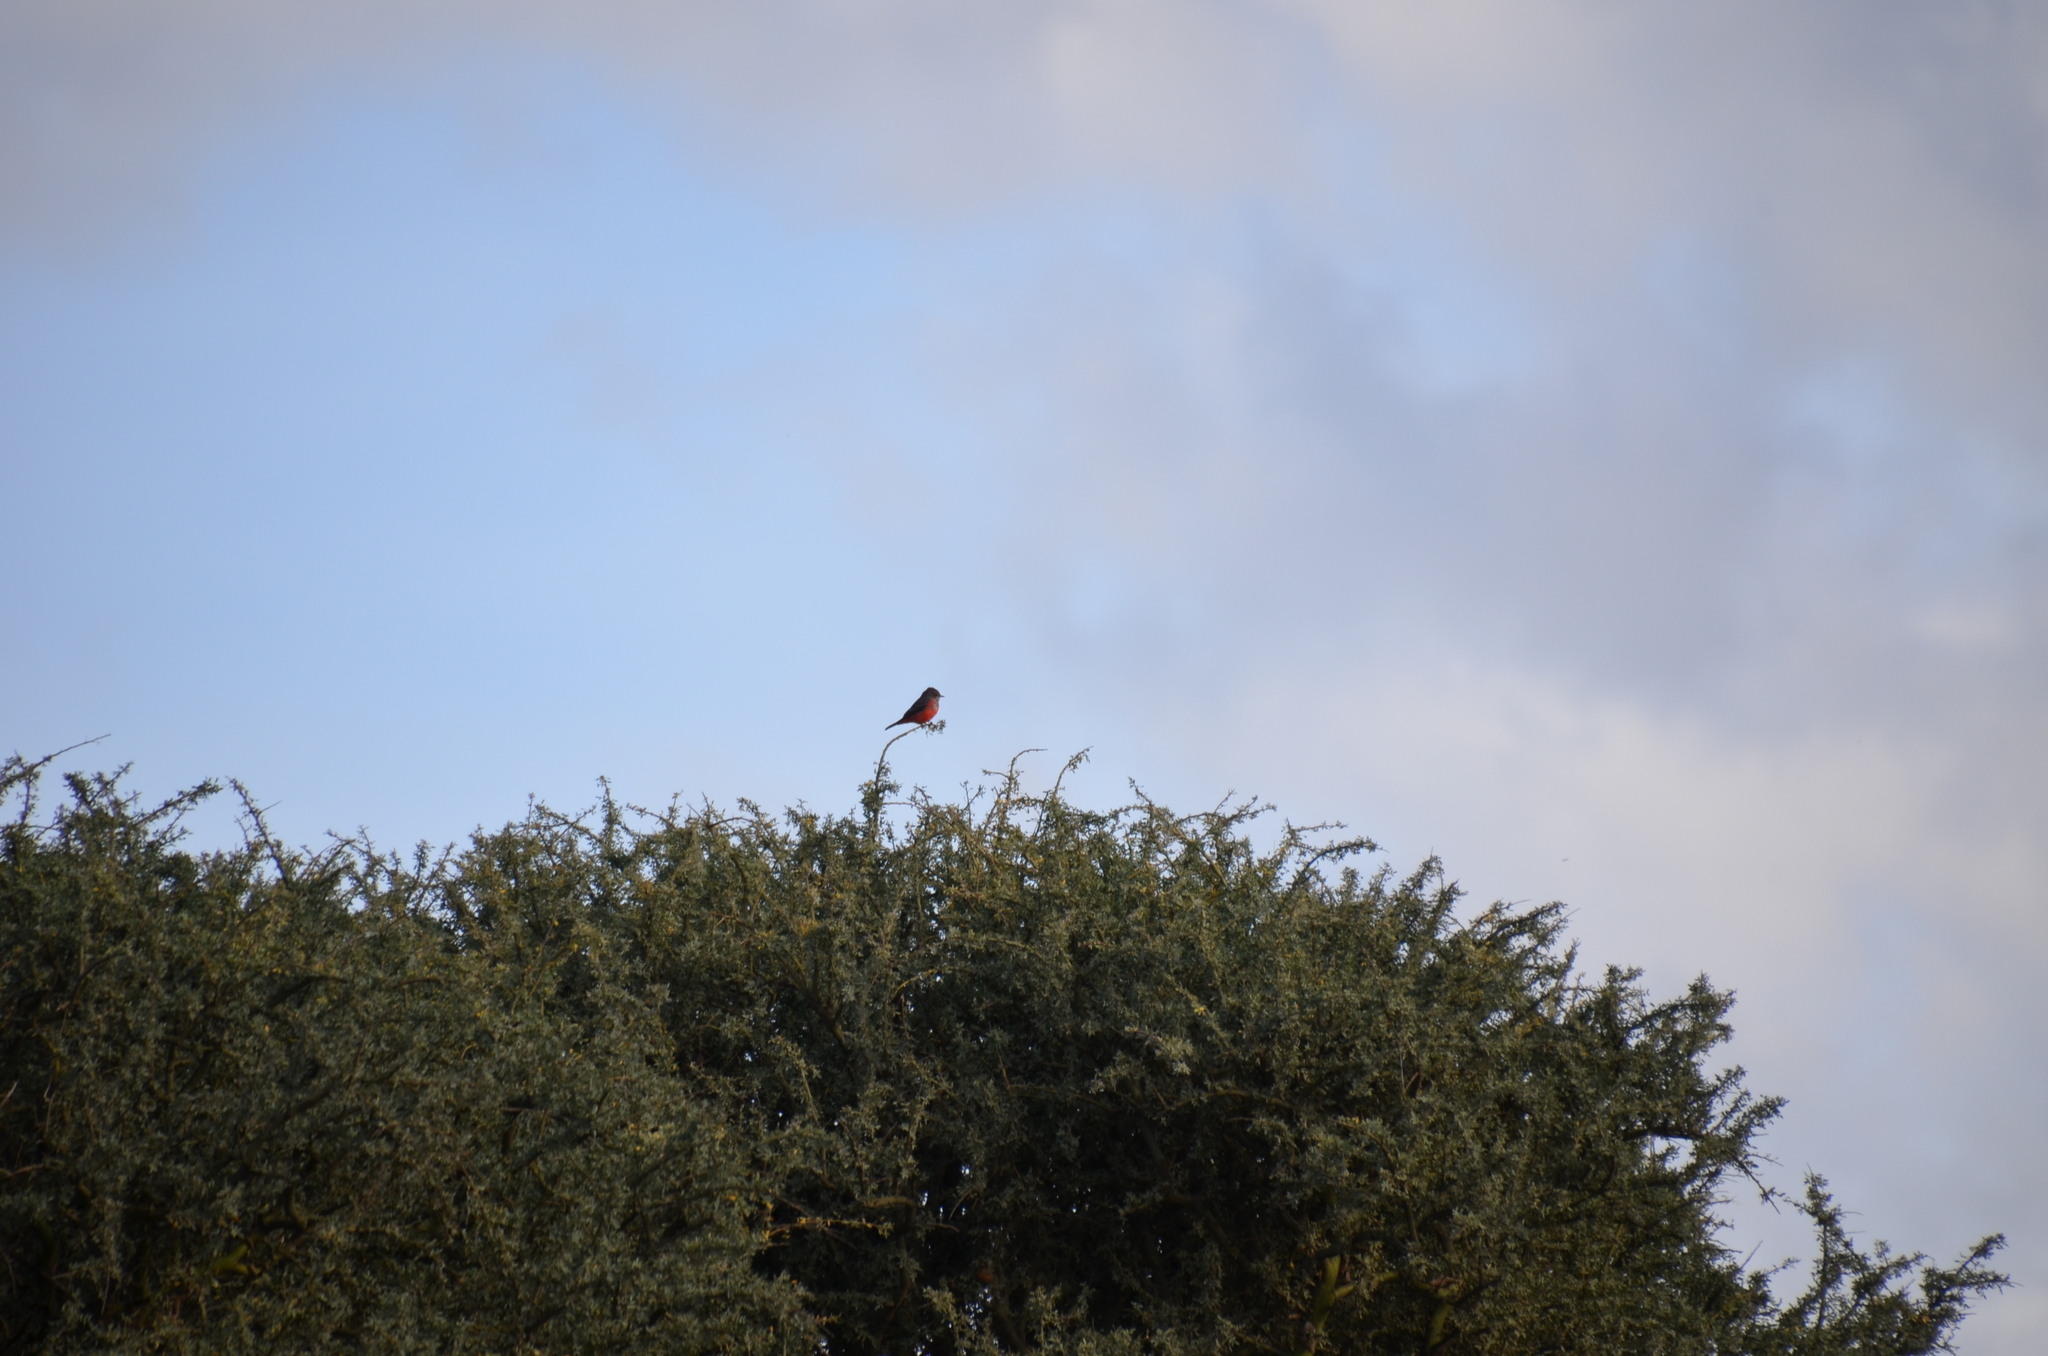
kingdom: Animalia
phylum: Chordata
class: Aves
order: Passeriformes
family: Tyrannidae
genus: Pyrocephalus
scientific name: Pyrocephalus rubinus
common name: Vermilion flycatcher
